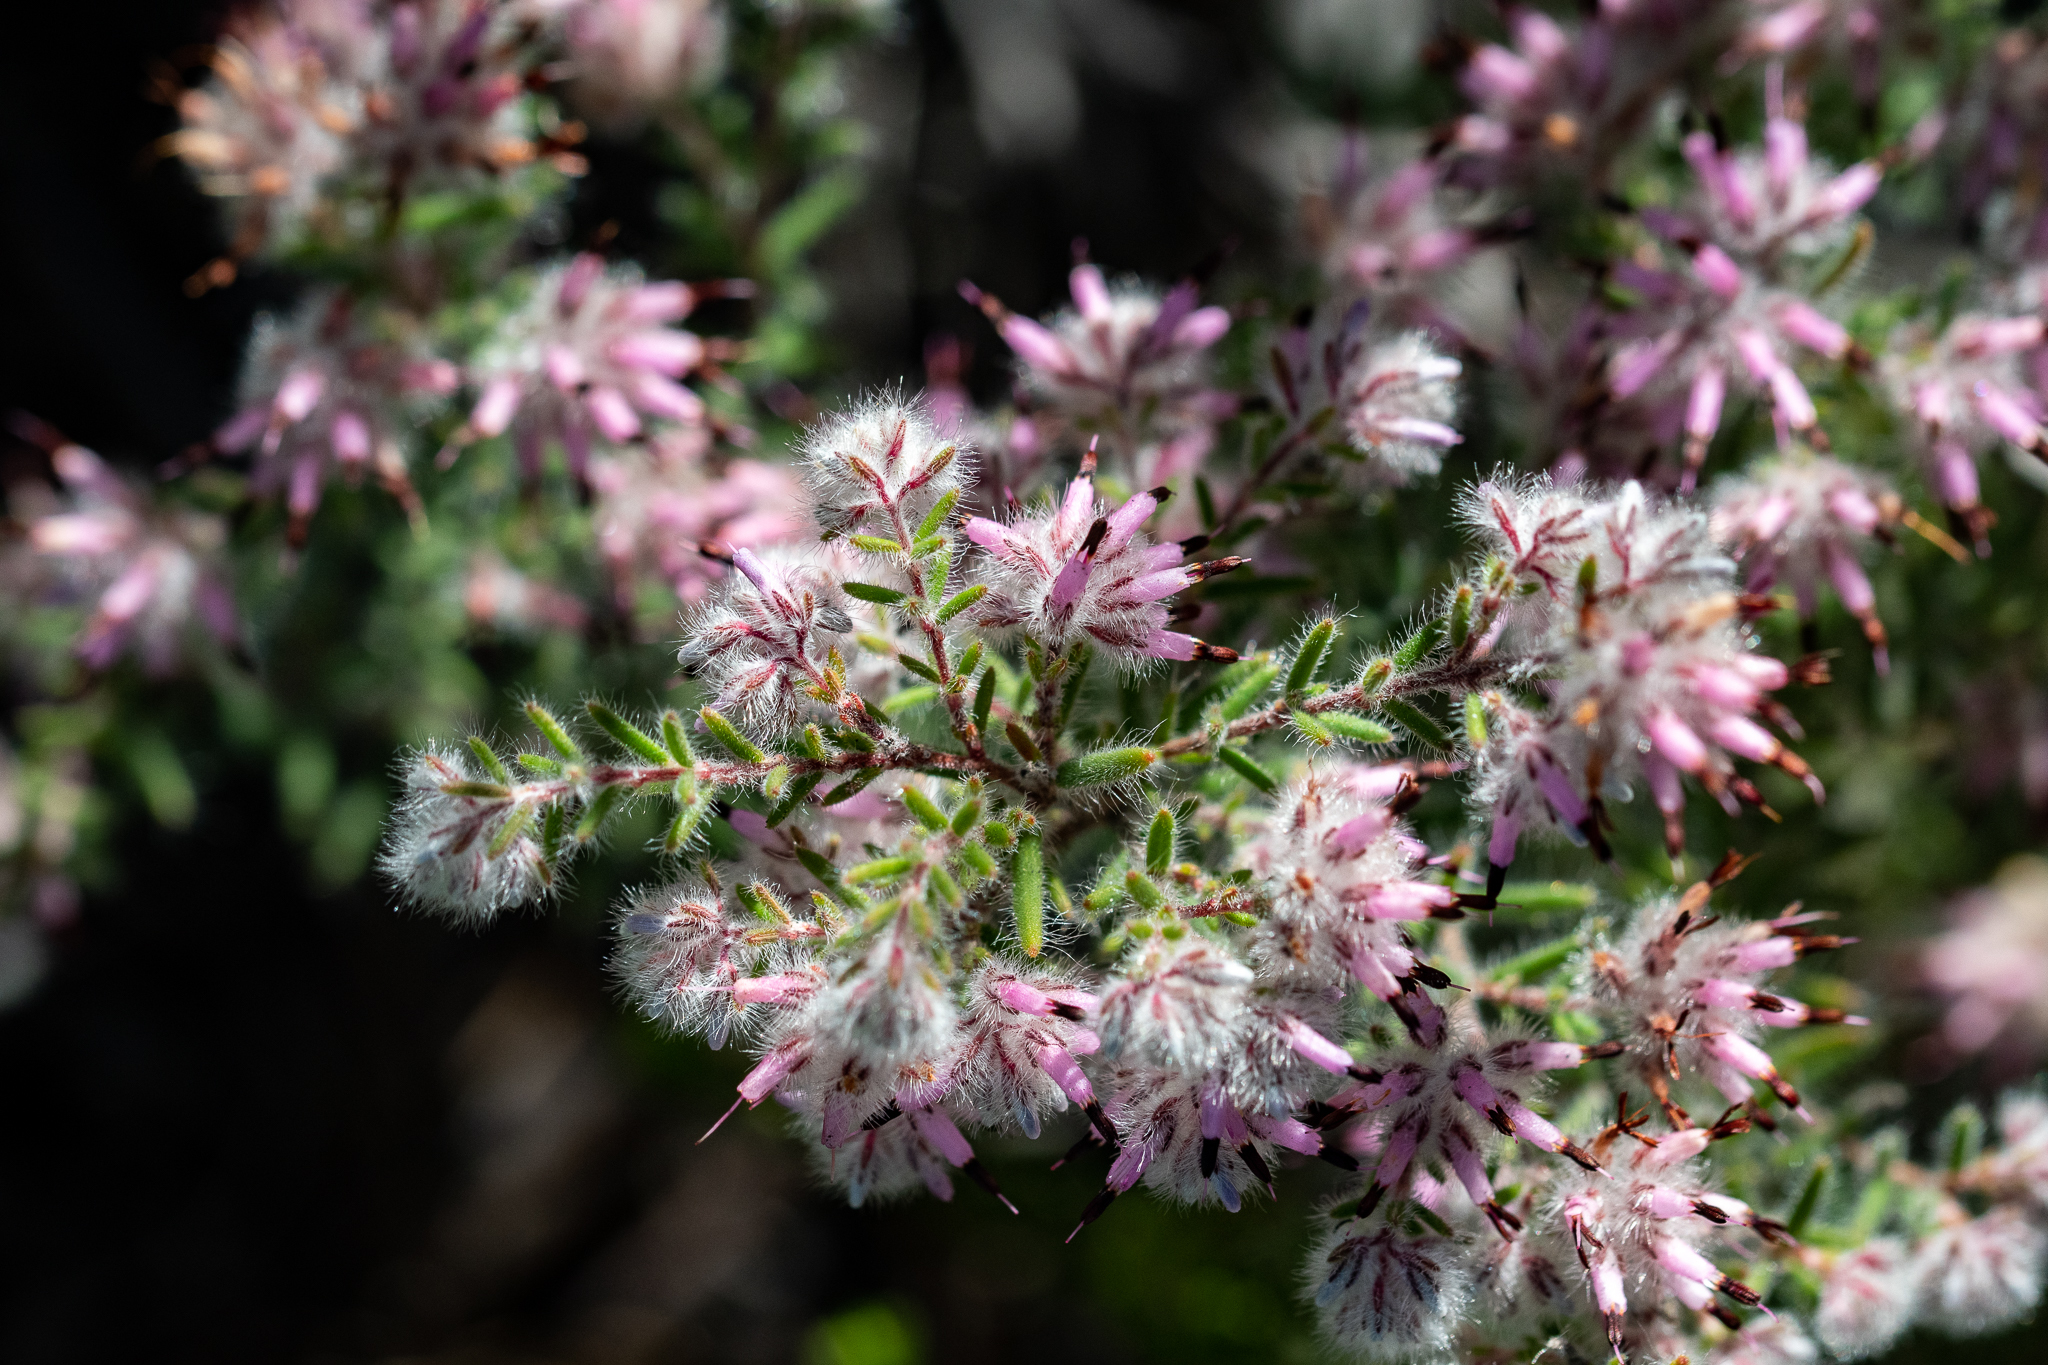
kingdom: Plantae
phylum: Tracheophyta
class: Magnoliopsida
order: Ericales
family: Ericaceae
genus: Erica
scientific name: Erica eriocephala
